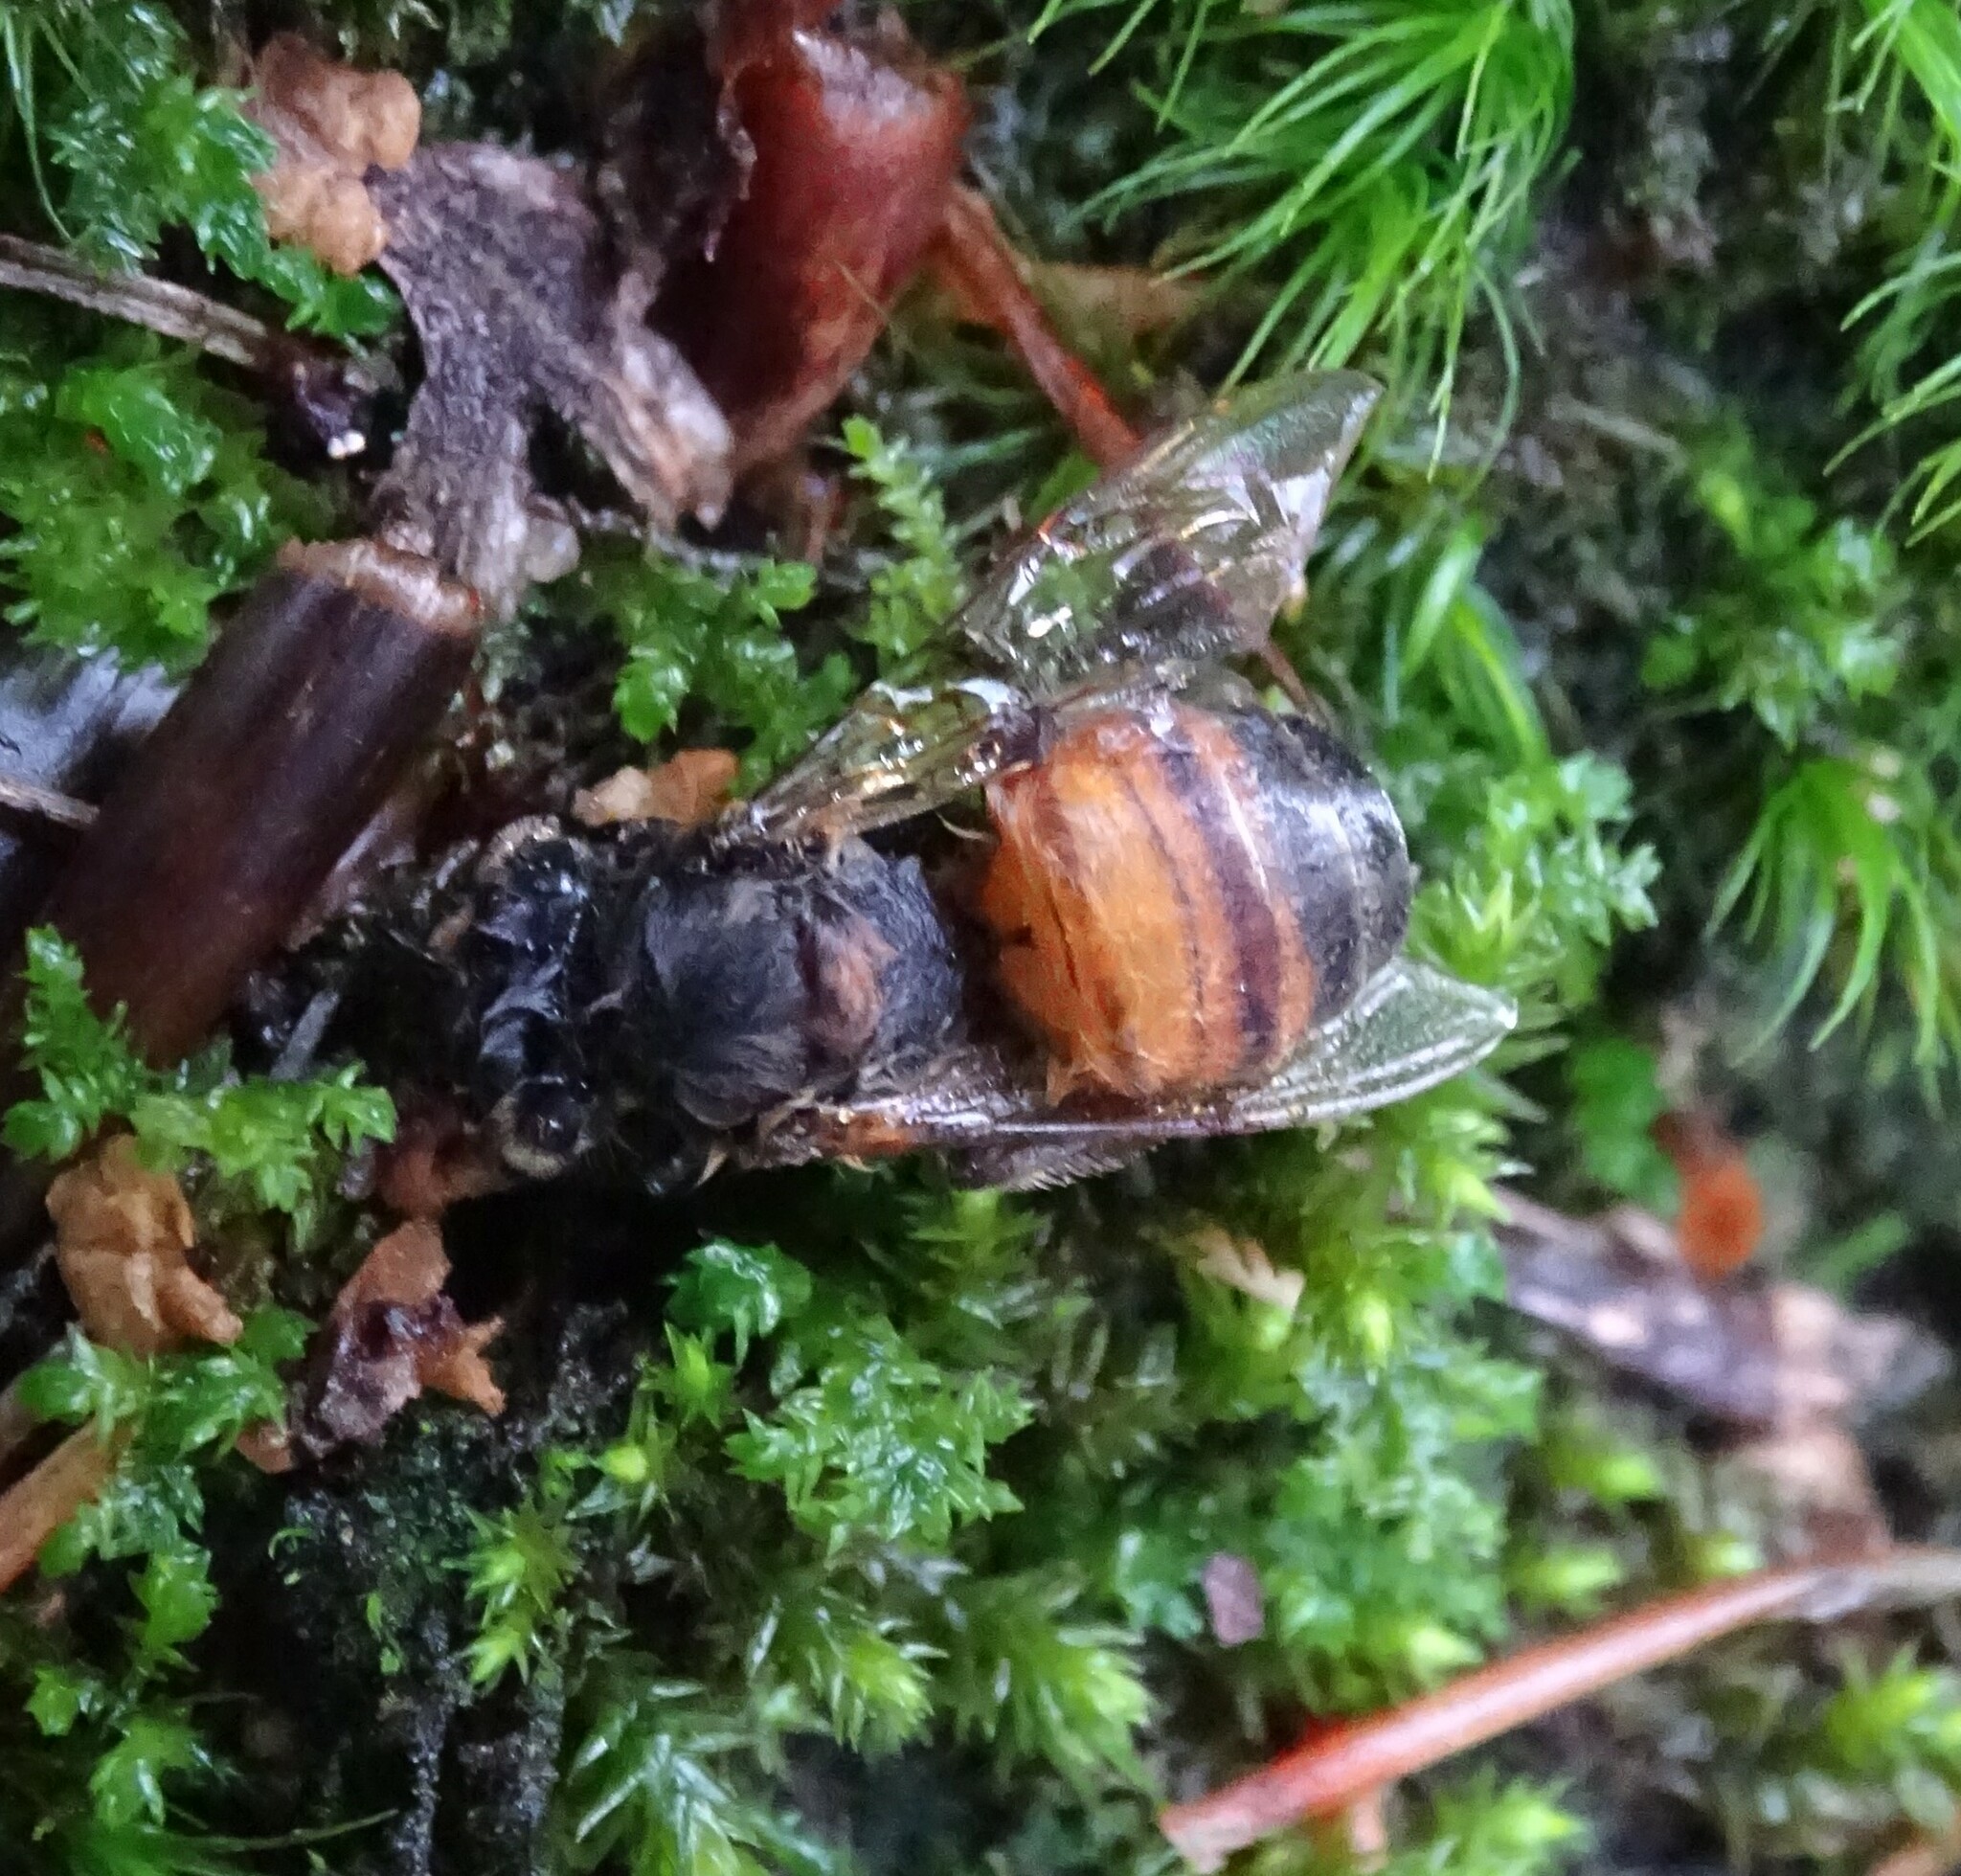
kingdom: Animalia
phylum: Arthropoda
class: Insecta
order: Hymenoptera
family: Apidae
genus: Apis
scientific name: Apis mellifera
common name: Honey bee
